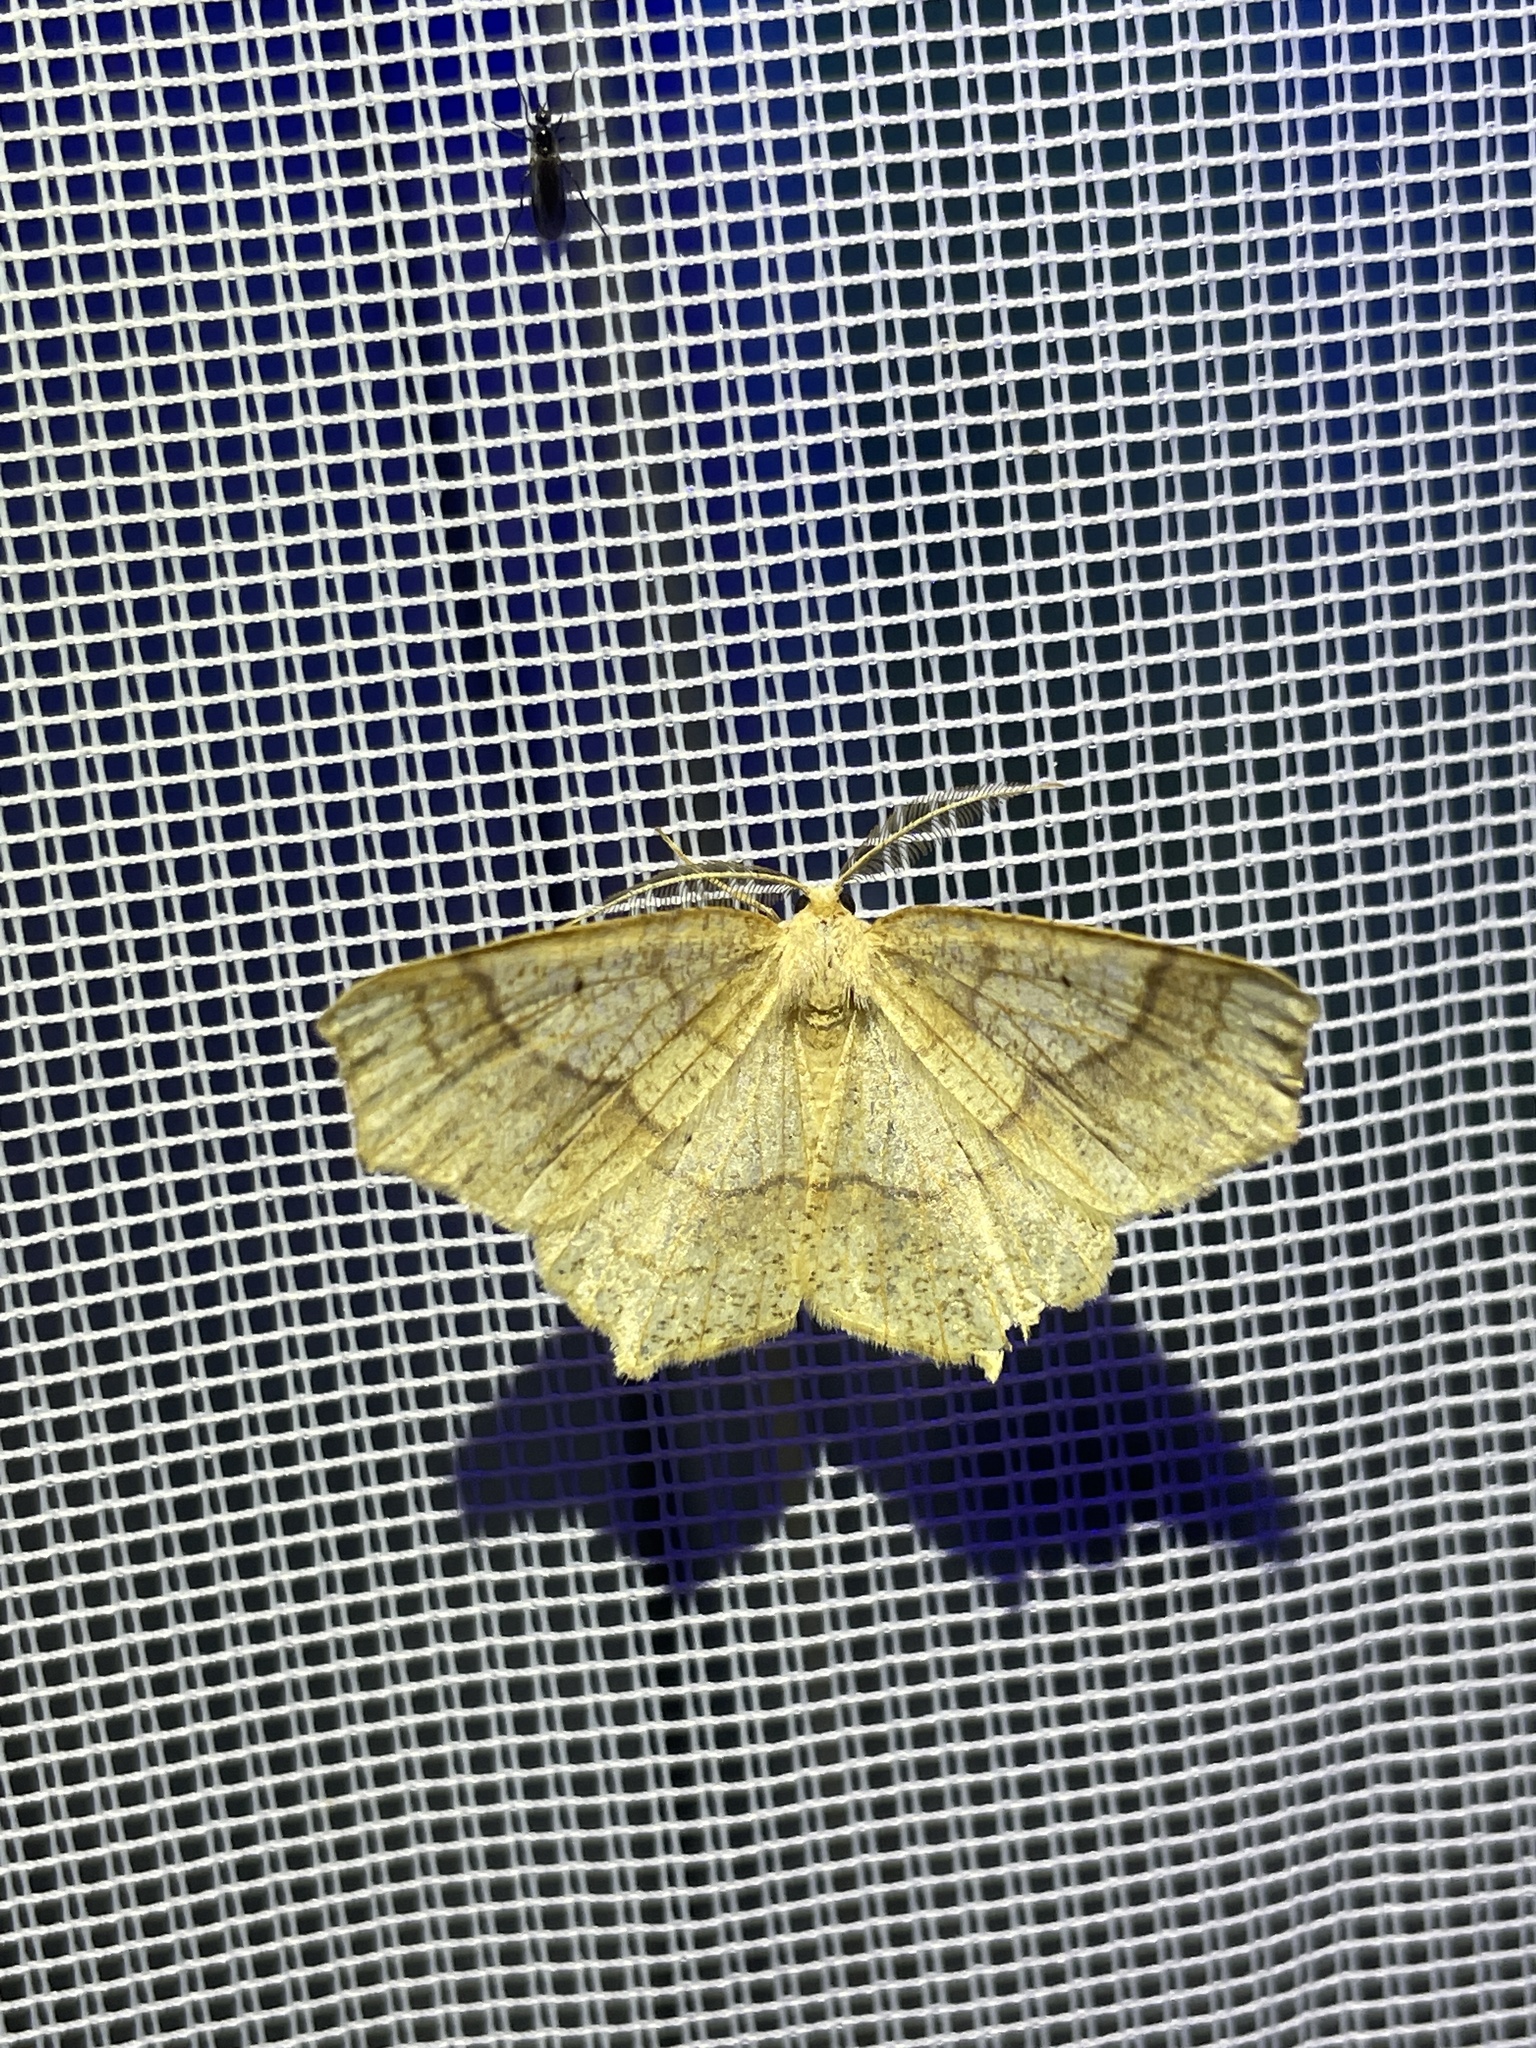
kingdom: Animalia
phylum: Arthropoda
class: Insecta
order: Lepidoptera
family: Geometridae
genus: Besma
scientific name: Besma quercivoraria
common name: Oak besma
